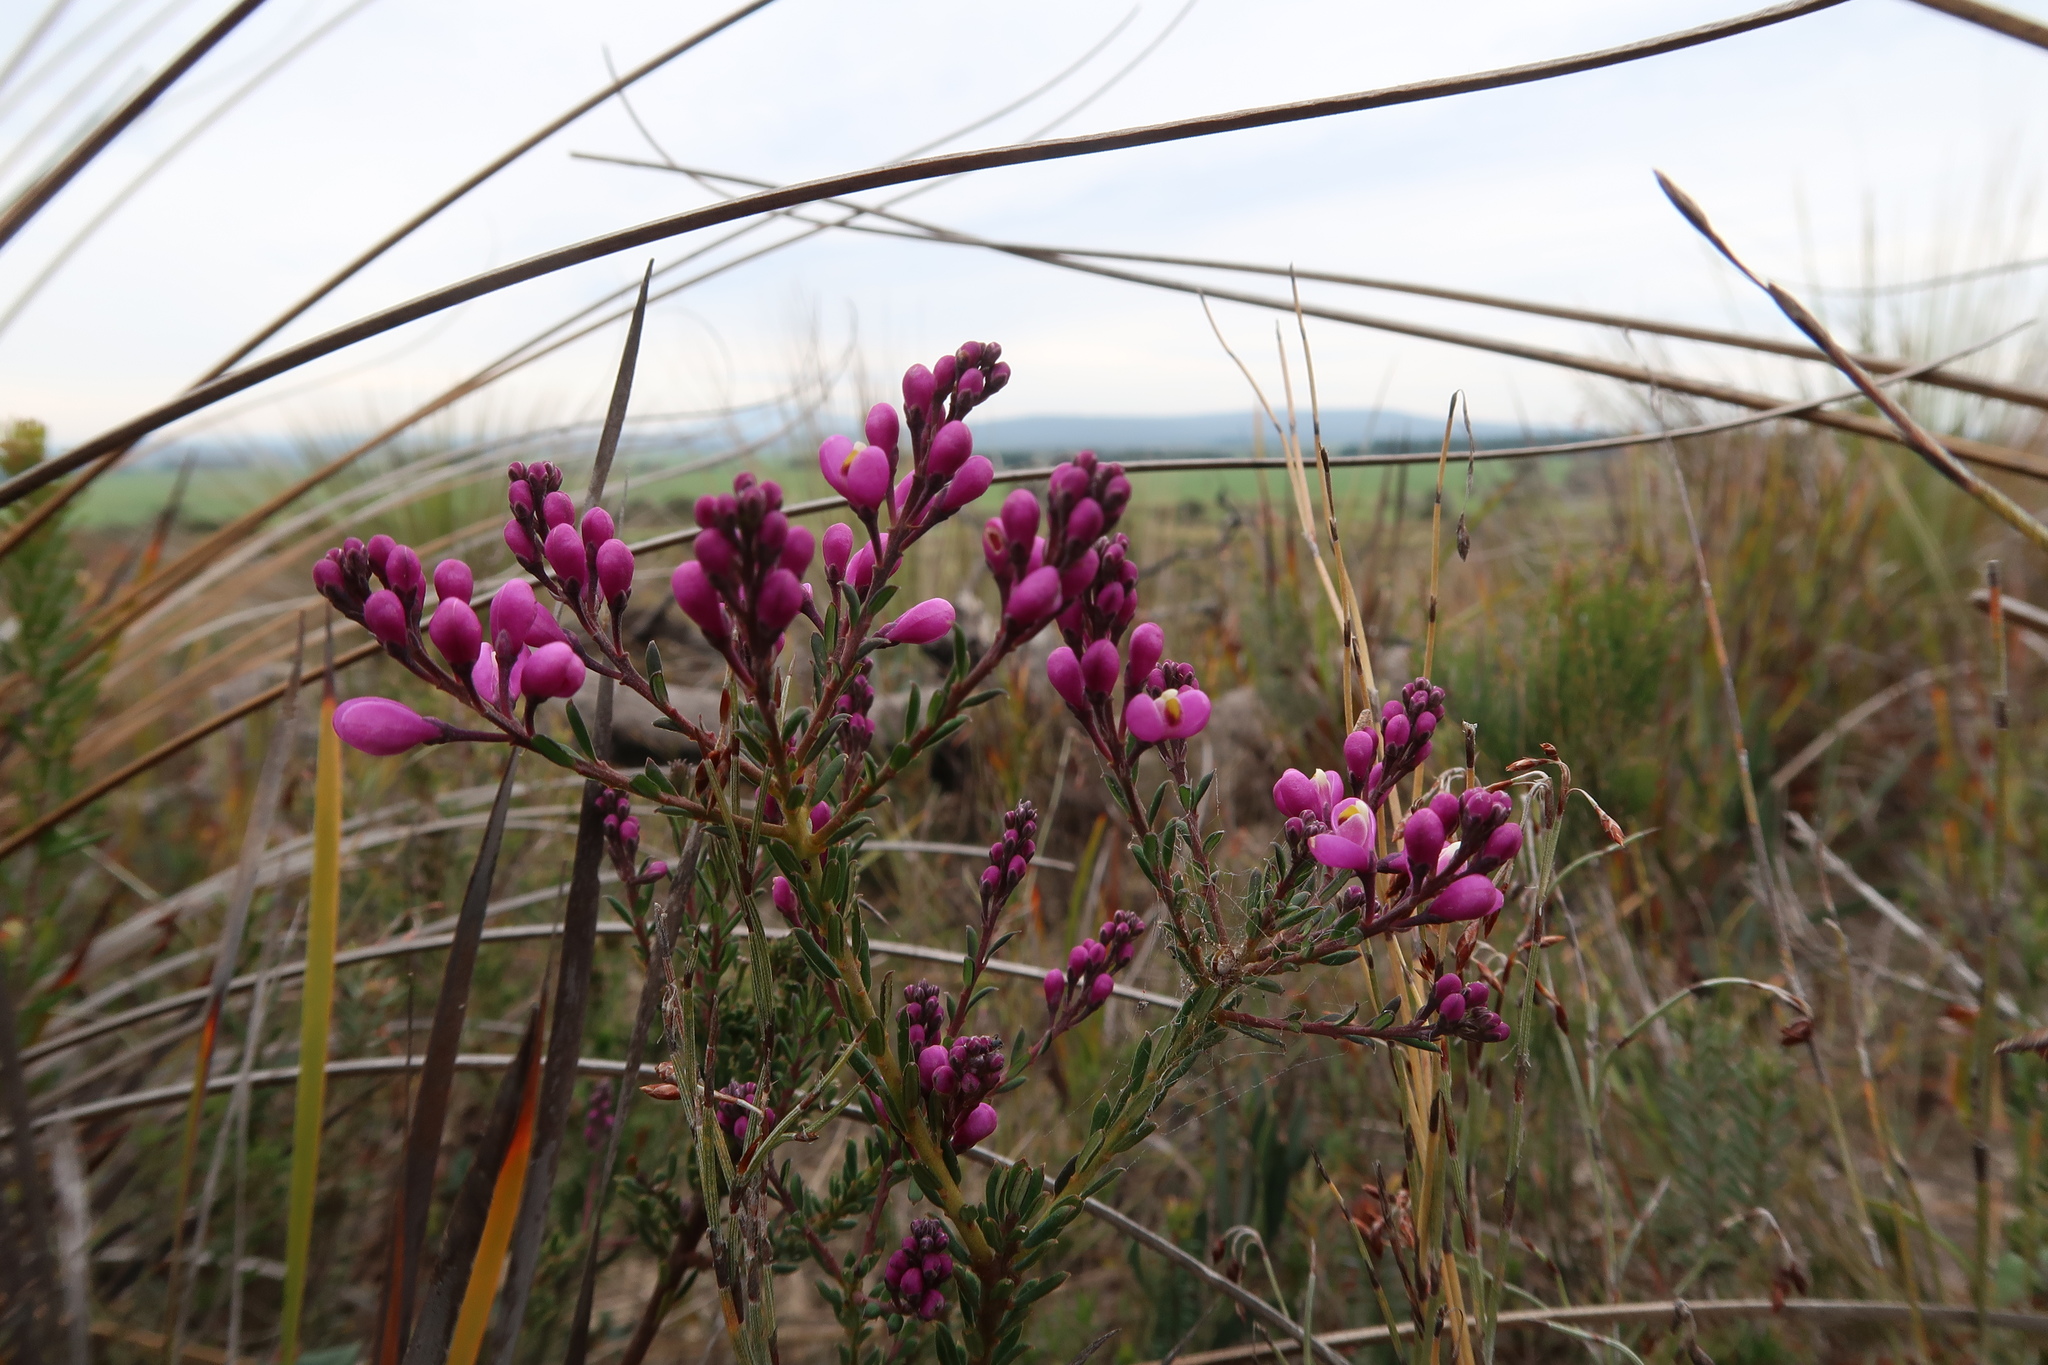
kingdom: Plantae
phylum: Tracheophyta
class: Magnoliopsida
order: Fabales
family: Polygalaceae
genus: Comesperma
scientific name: Comesperma ericinum
